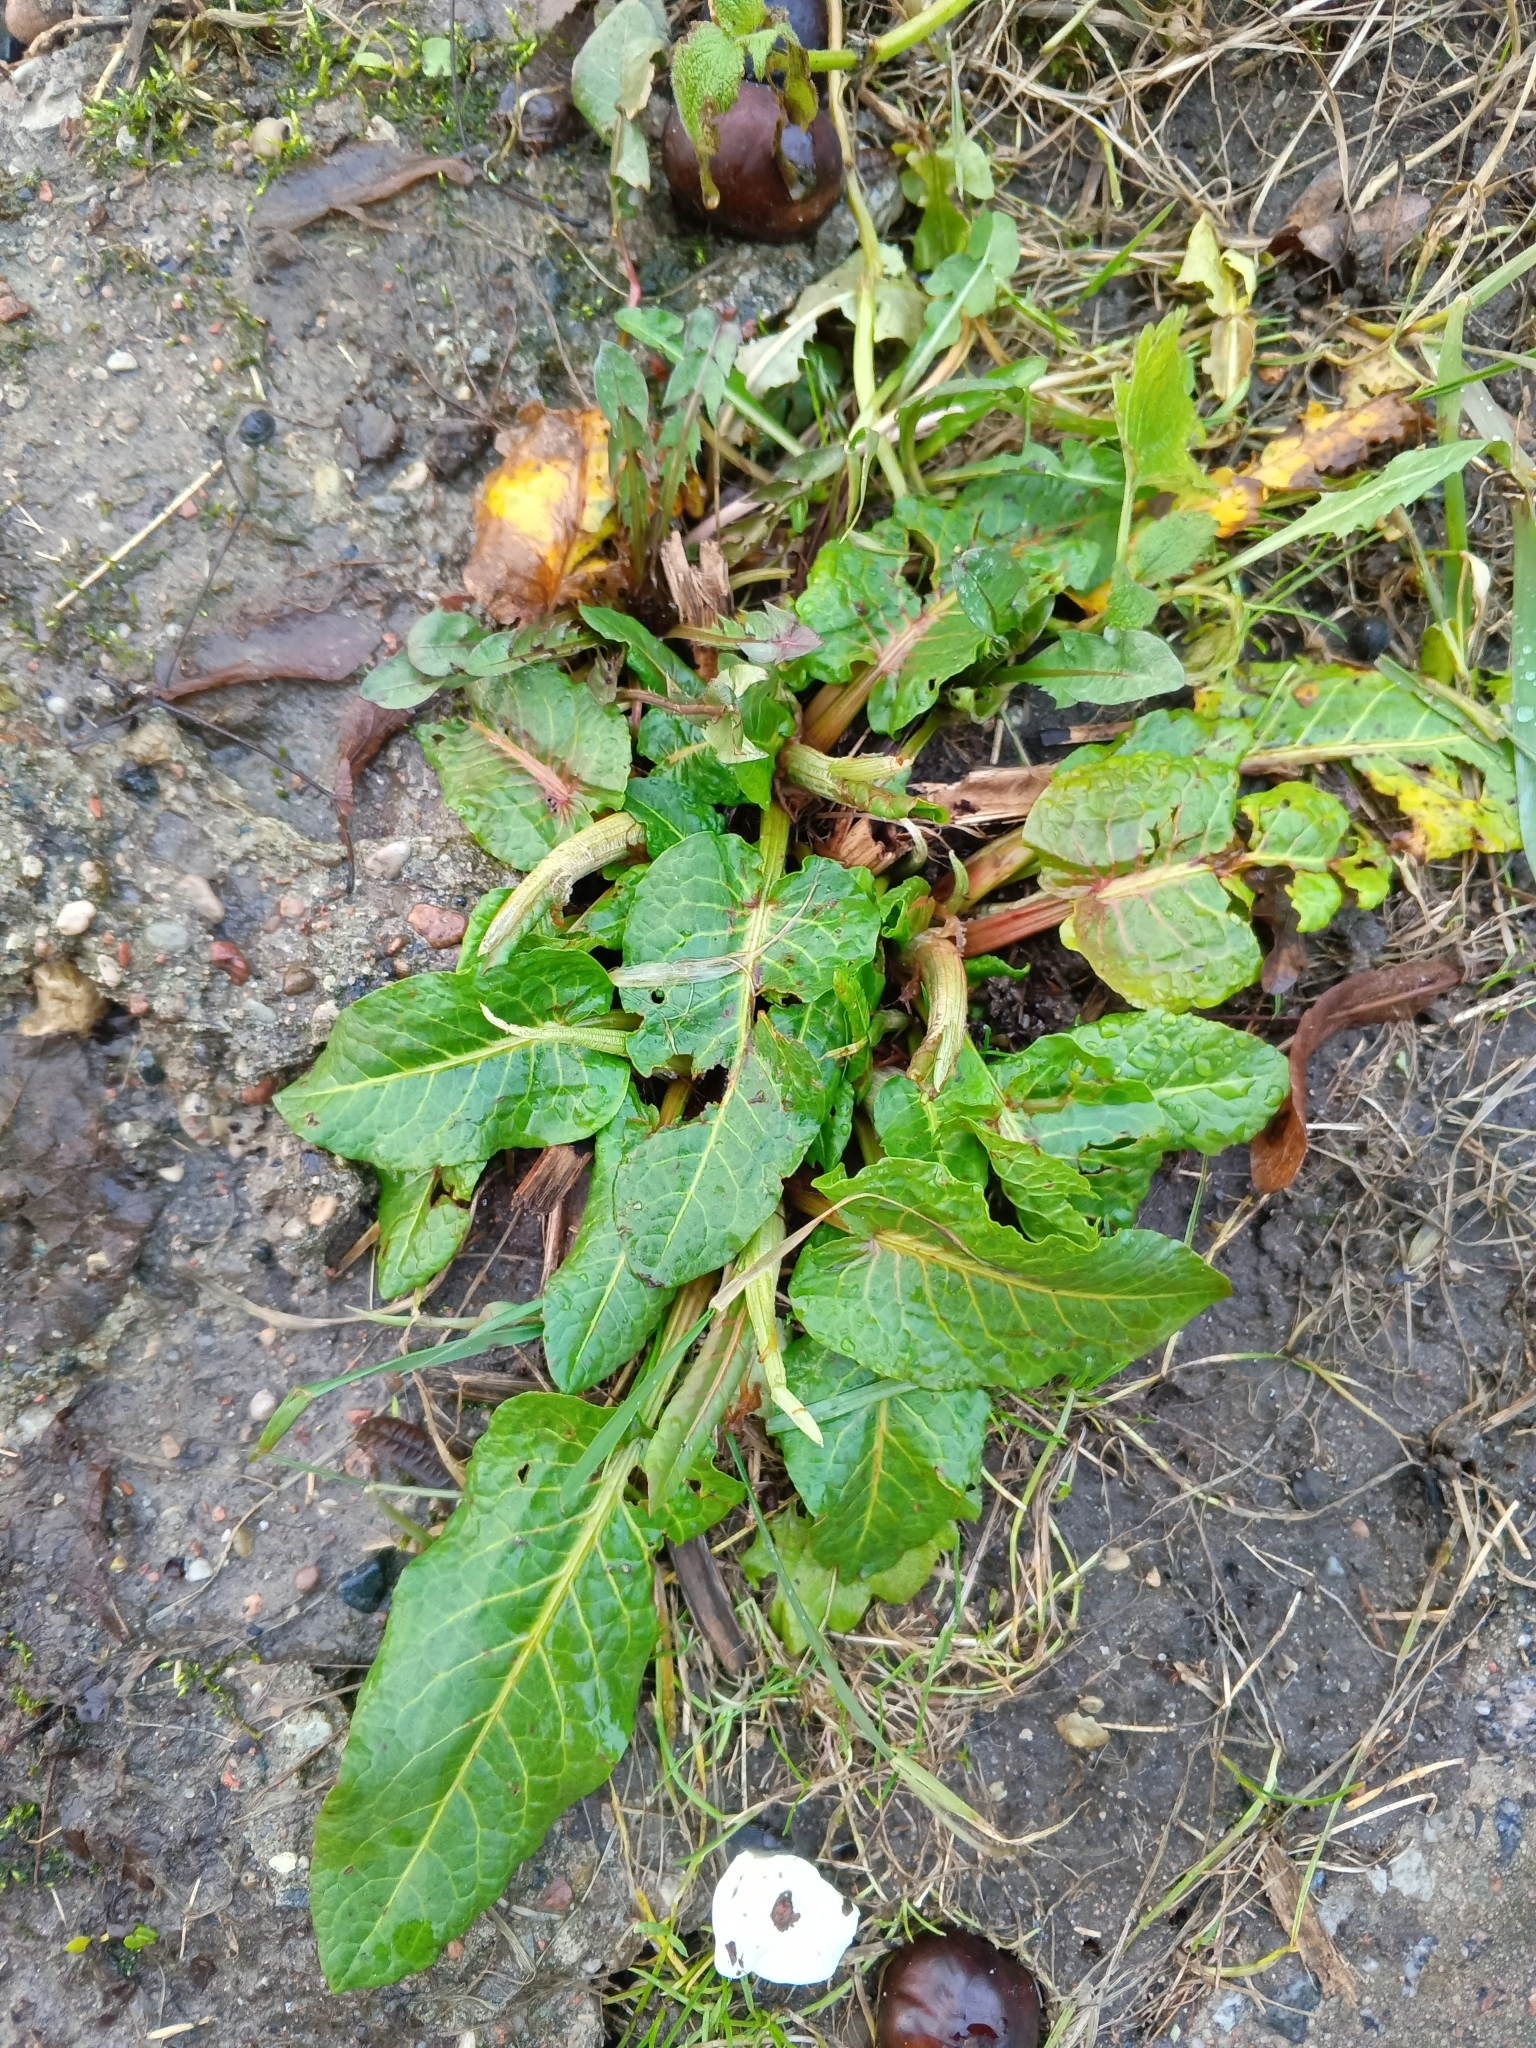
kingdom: Plantae
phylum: Tracheophyta
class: Magnoliopsida
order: Caryophyllales
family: Polygonaceae
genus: Rumex
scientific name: Rumex obtusifolius
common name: Bitter dock
